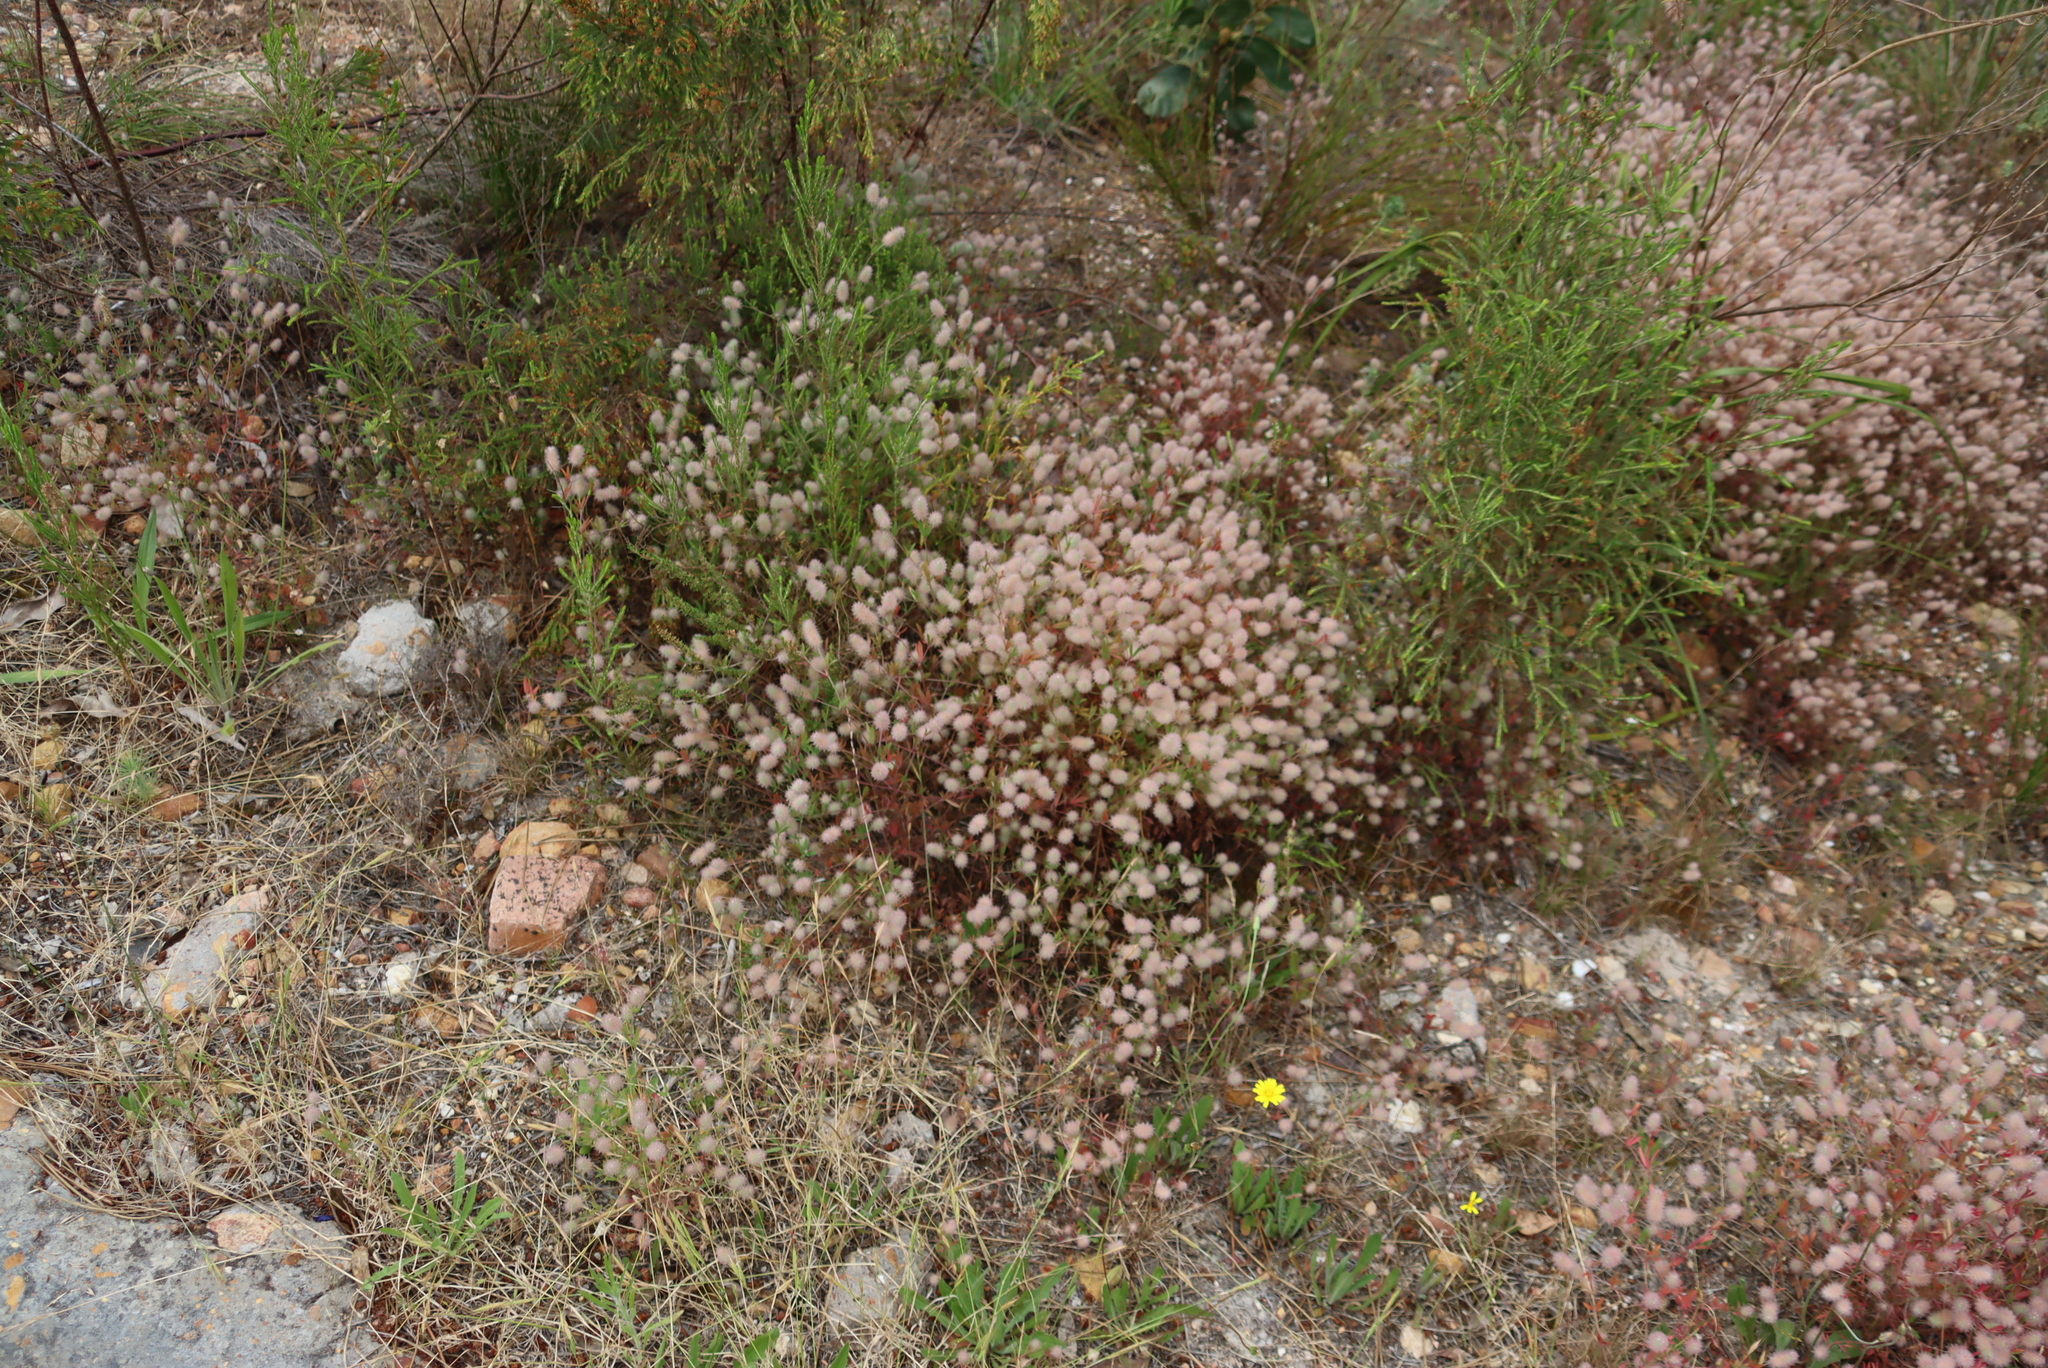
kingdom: Plantae
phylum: Tracheophyta
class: Magnoliopsida
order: Fabales
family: Fabaceae
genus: Trifolium
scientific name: Trifolium arvense
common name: Hare's-foot clover
